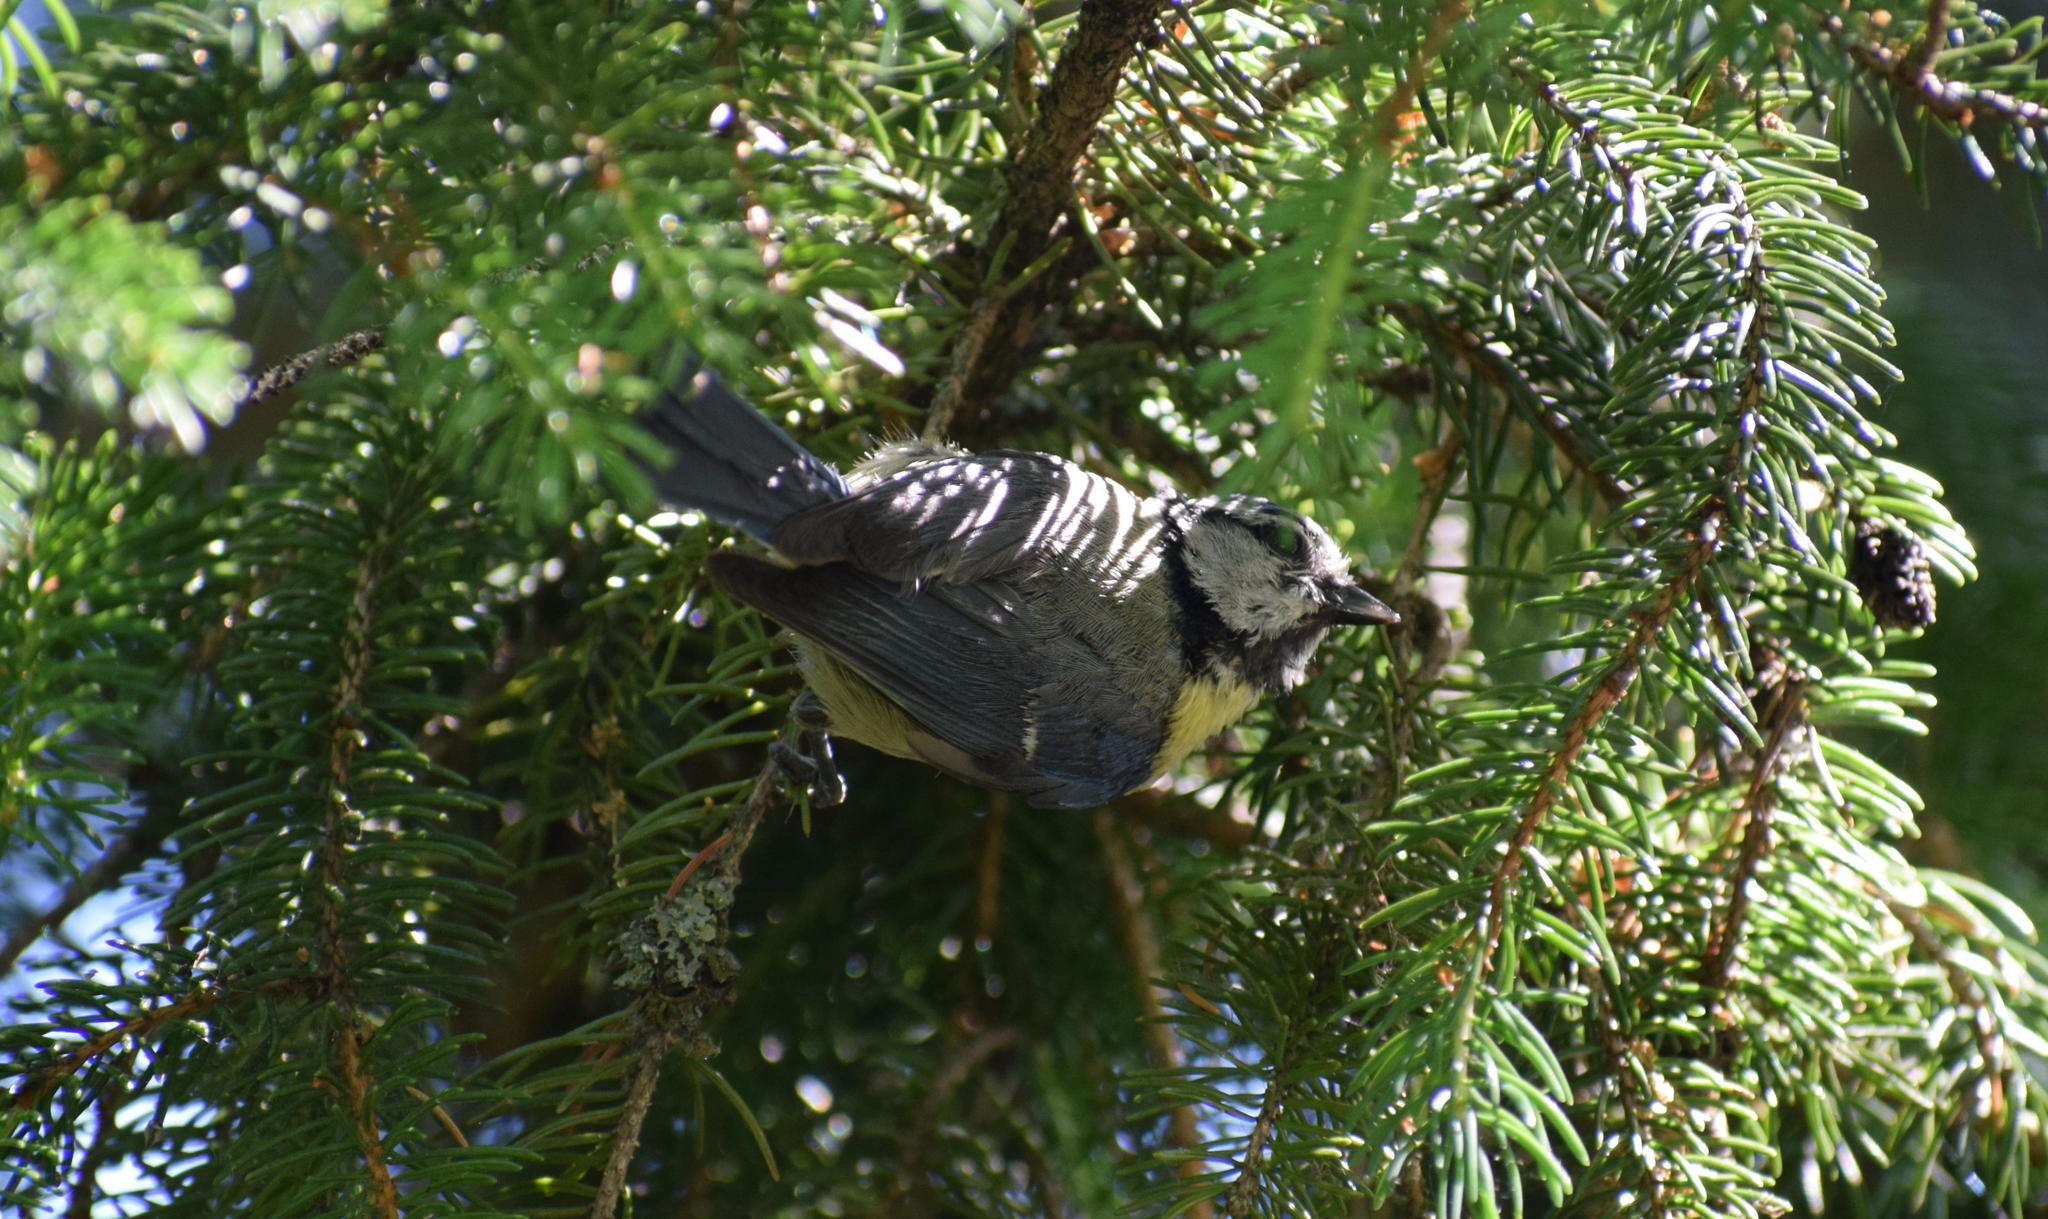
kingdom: Animalia
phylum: Chordata
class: Aves
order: Passeriformes
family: Paridae
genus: Cyanistes
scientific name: Cyanistes caeruleus
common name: Eurasian blue tit
